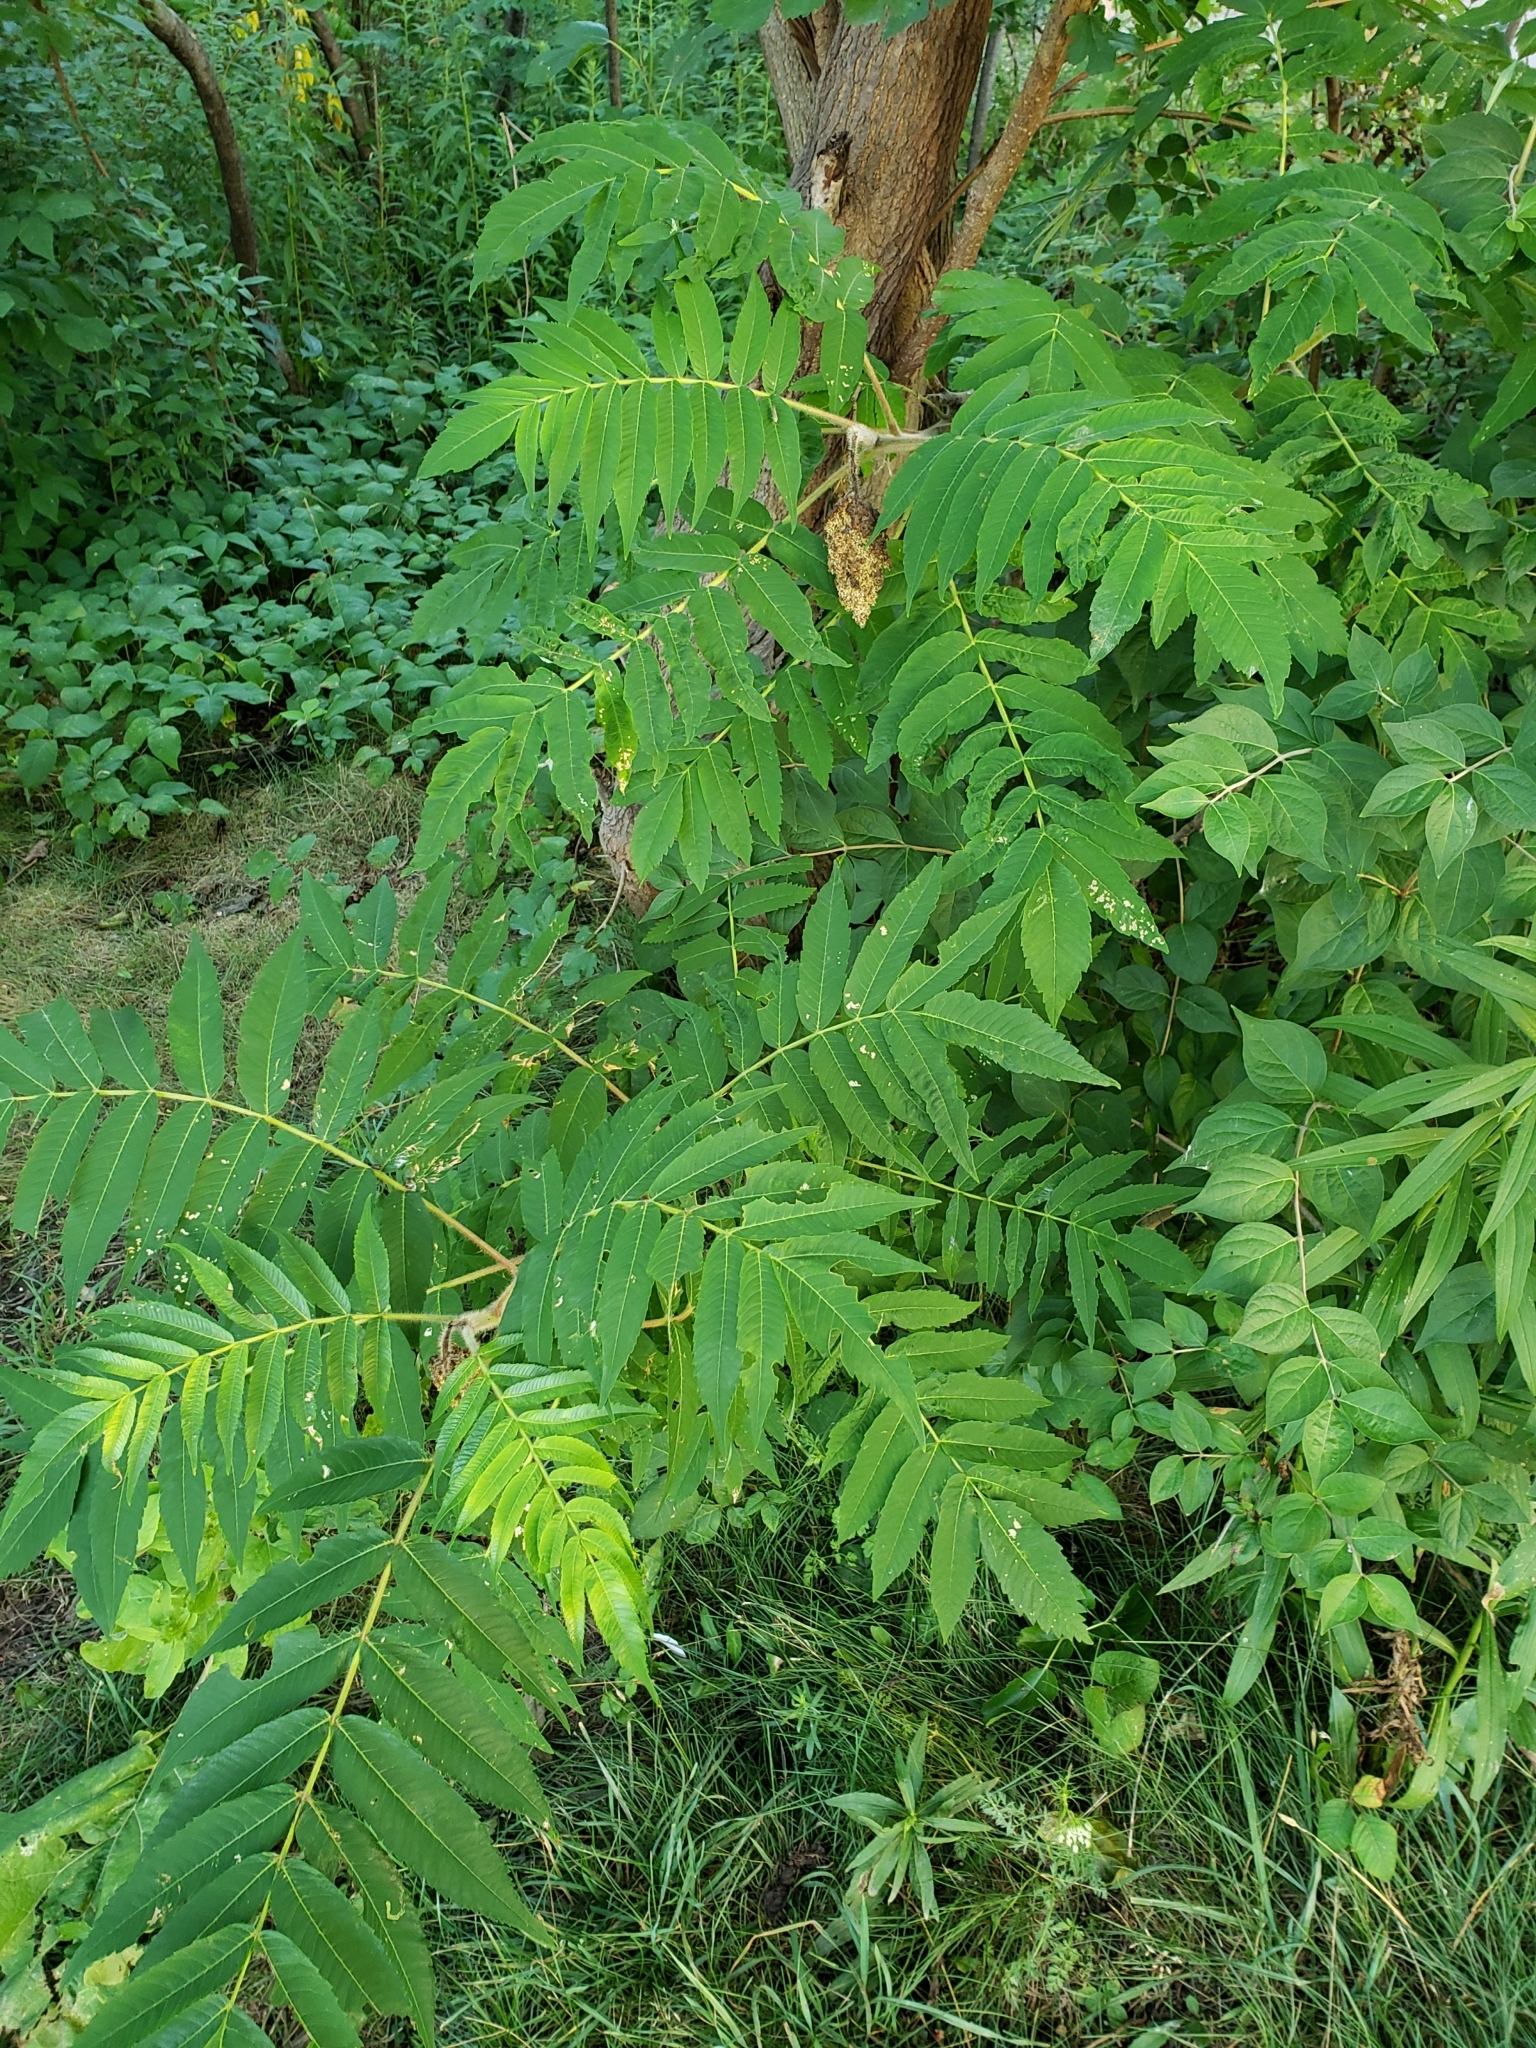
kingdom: Plantae
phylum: Tracheophyta
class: Magnoliopsida
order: Sapindales
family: Anacardiaceae
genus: Rhus
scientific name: Rhus typhina
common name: Staghorn sumac
